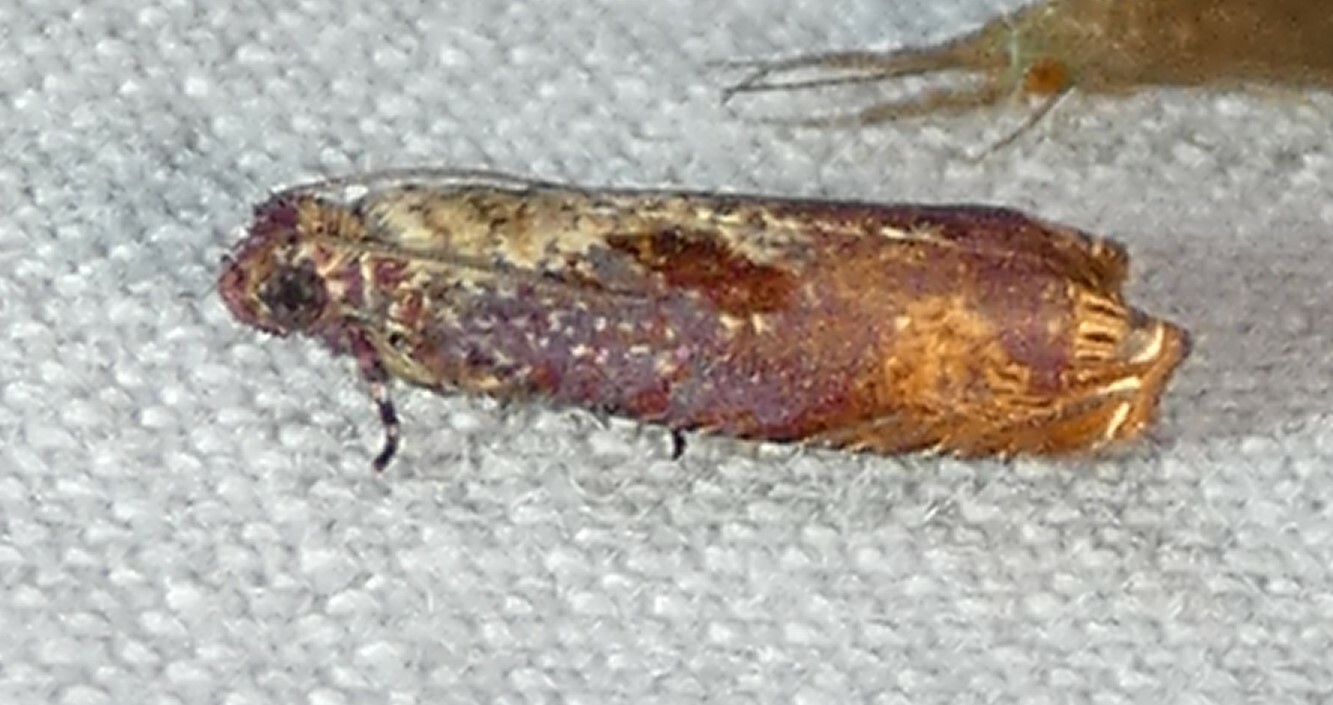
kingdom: Animalia
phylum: Arthropoda
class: Insecta
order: Lepidoptera
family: Tortricidae
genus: Episimus
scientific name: Episimus tyrius
